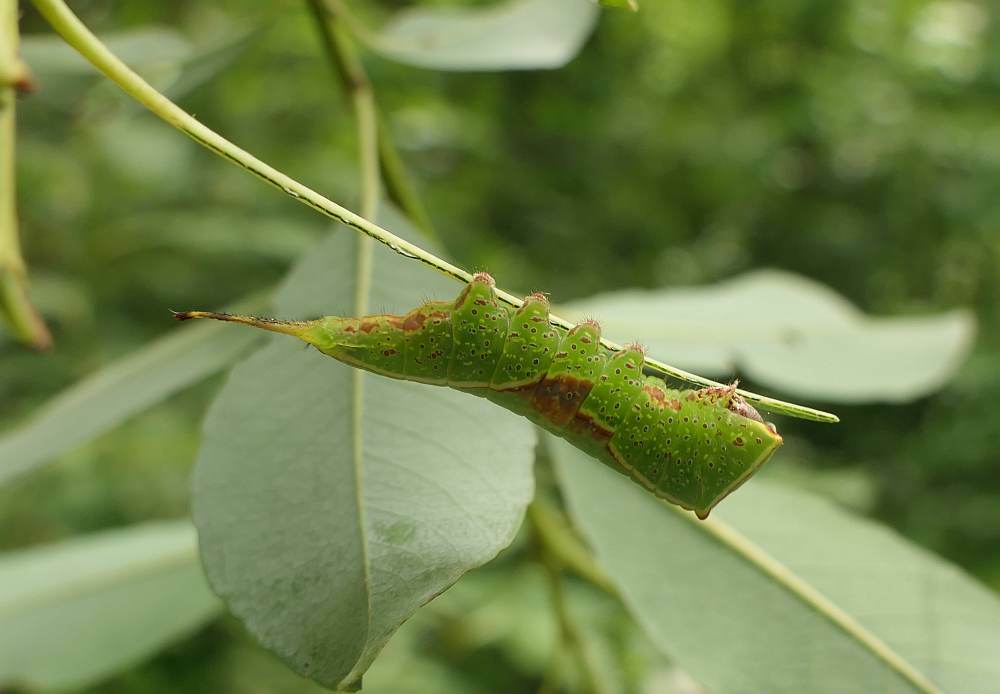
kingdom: Animalia
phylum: Arthropoda
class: Insecta
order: Lepidoptera
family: Notodontidae
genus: Furcula
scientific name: Furcula occidentalis
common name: Western furcula moth
